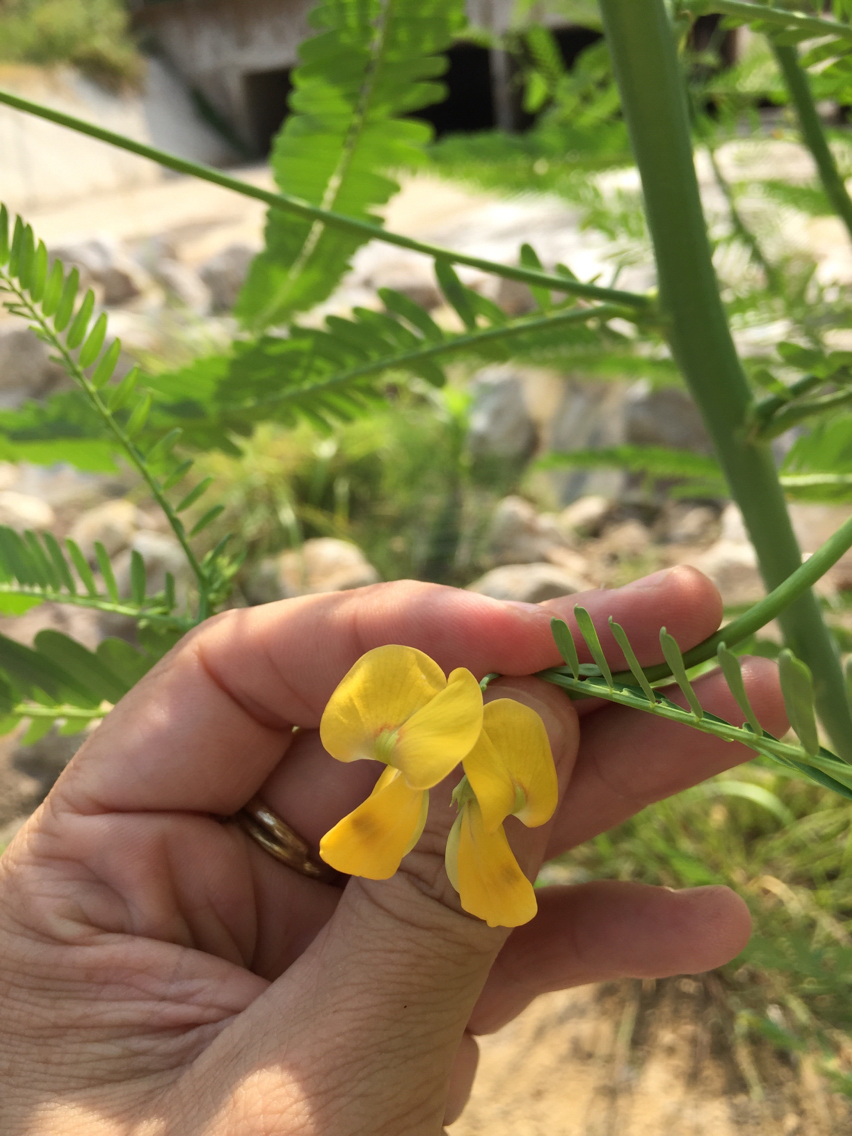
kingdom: Plantae
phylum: Tracheophyta
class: Magnoliopsida
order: Fabales
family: Fabaceae
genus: Sesbania
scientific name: Sesbania herbacea
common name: Bigpod sesbania
